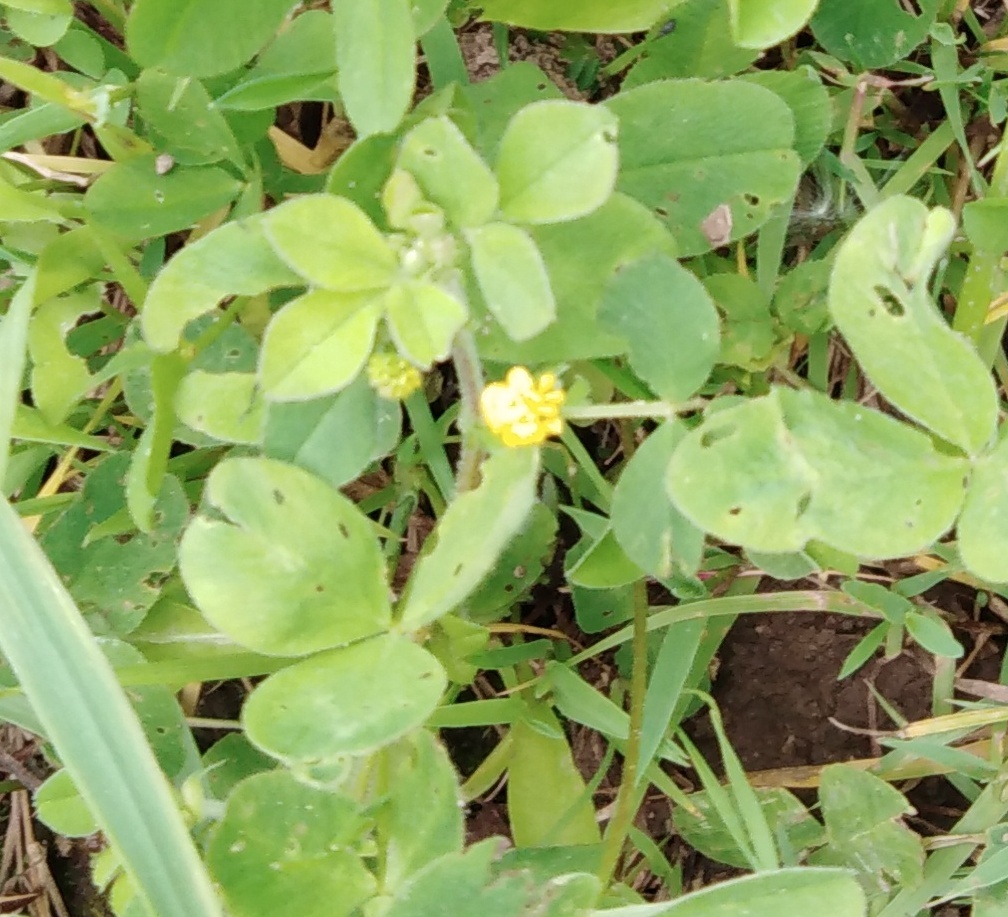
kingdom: Plantae
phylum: Tracheophyta
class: Magnoliopsida
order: Fabales
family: Fabaceae
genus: Medicago
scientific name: Medicago lupulina
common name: Black medick
